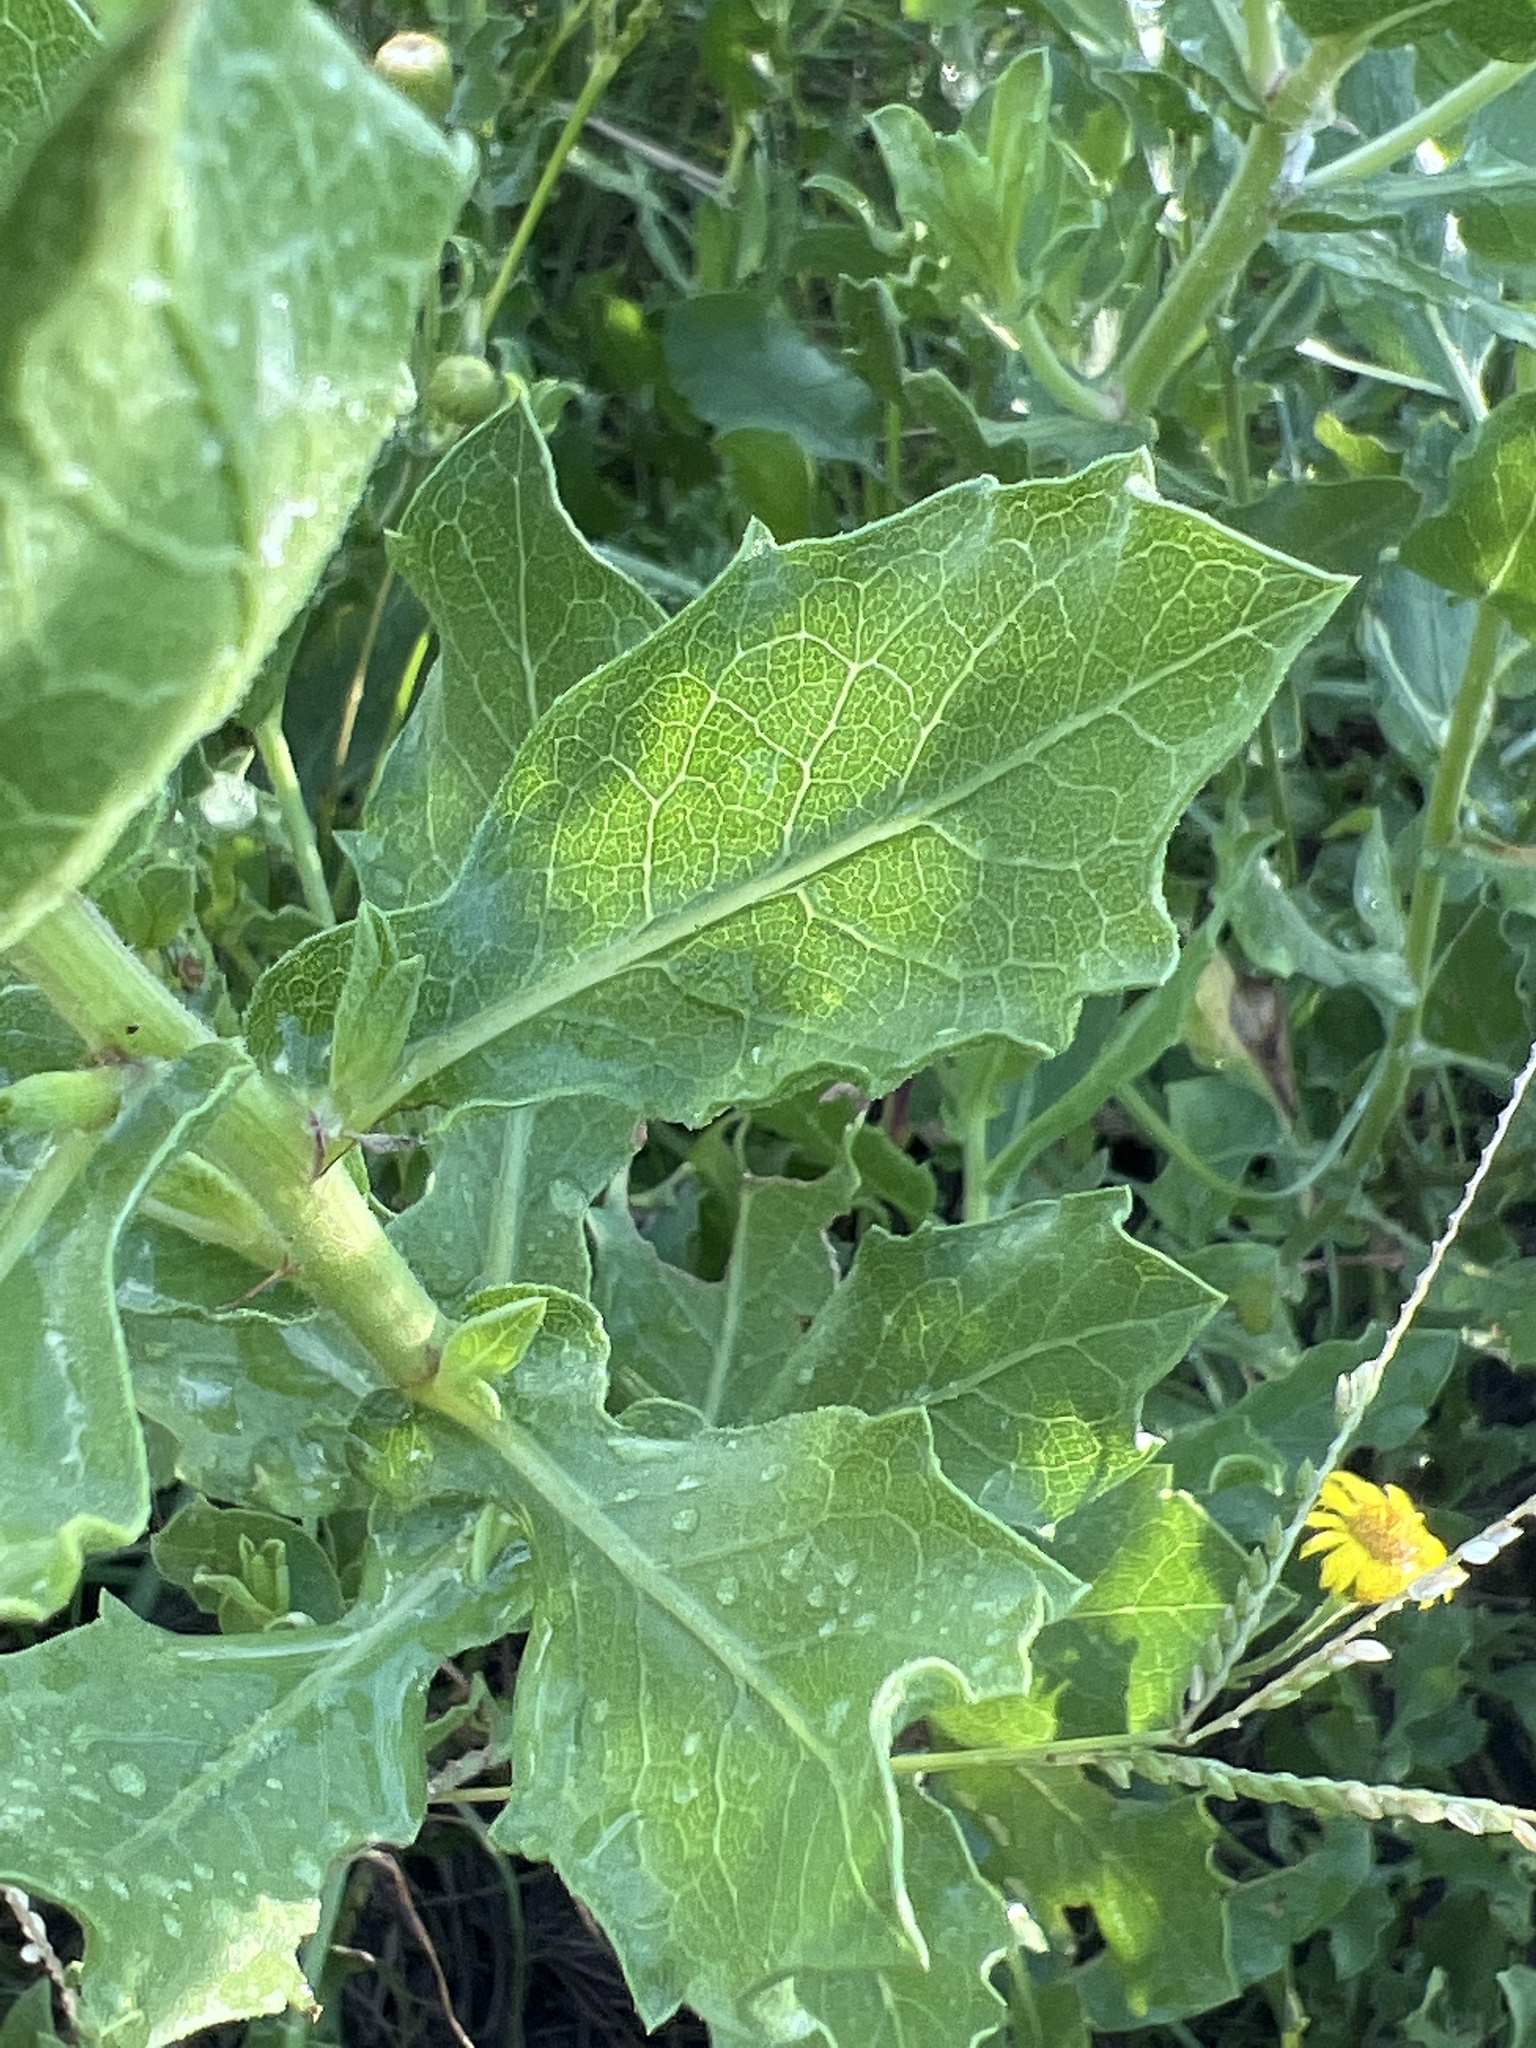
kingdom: Plantae
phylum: Tracheophyta
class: Magnoliopsida
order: Asterales
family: Asteraceae
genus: Heterotheca
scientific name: Heterotheca subaxillaris
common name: Camphorweed
